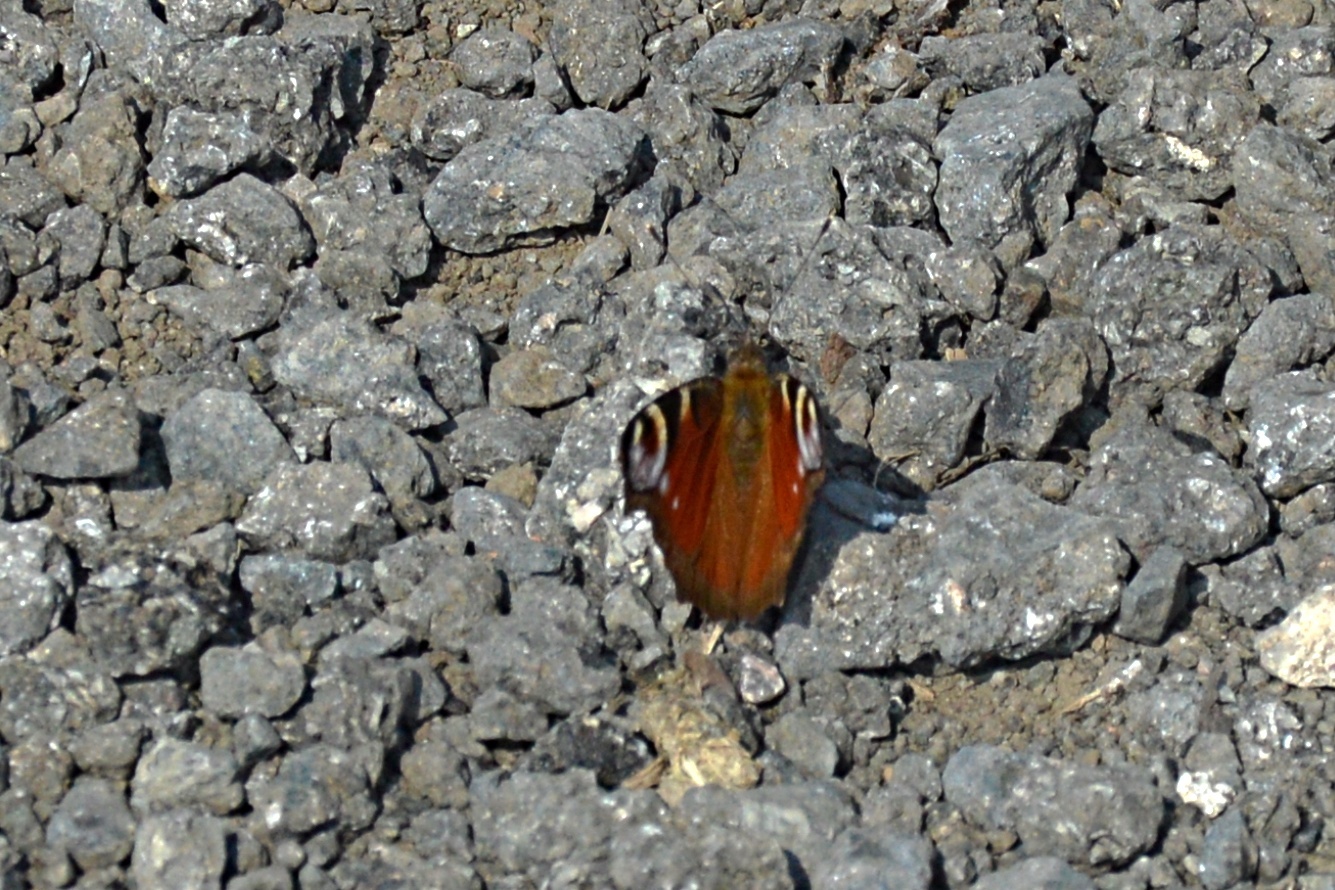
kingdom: Animalia
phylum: Arthropoda
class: Insecta
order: Lepidoptera
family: Nymphalidae
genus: Aglais
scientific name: Aglais io
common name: Peacock
